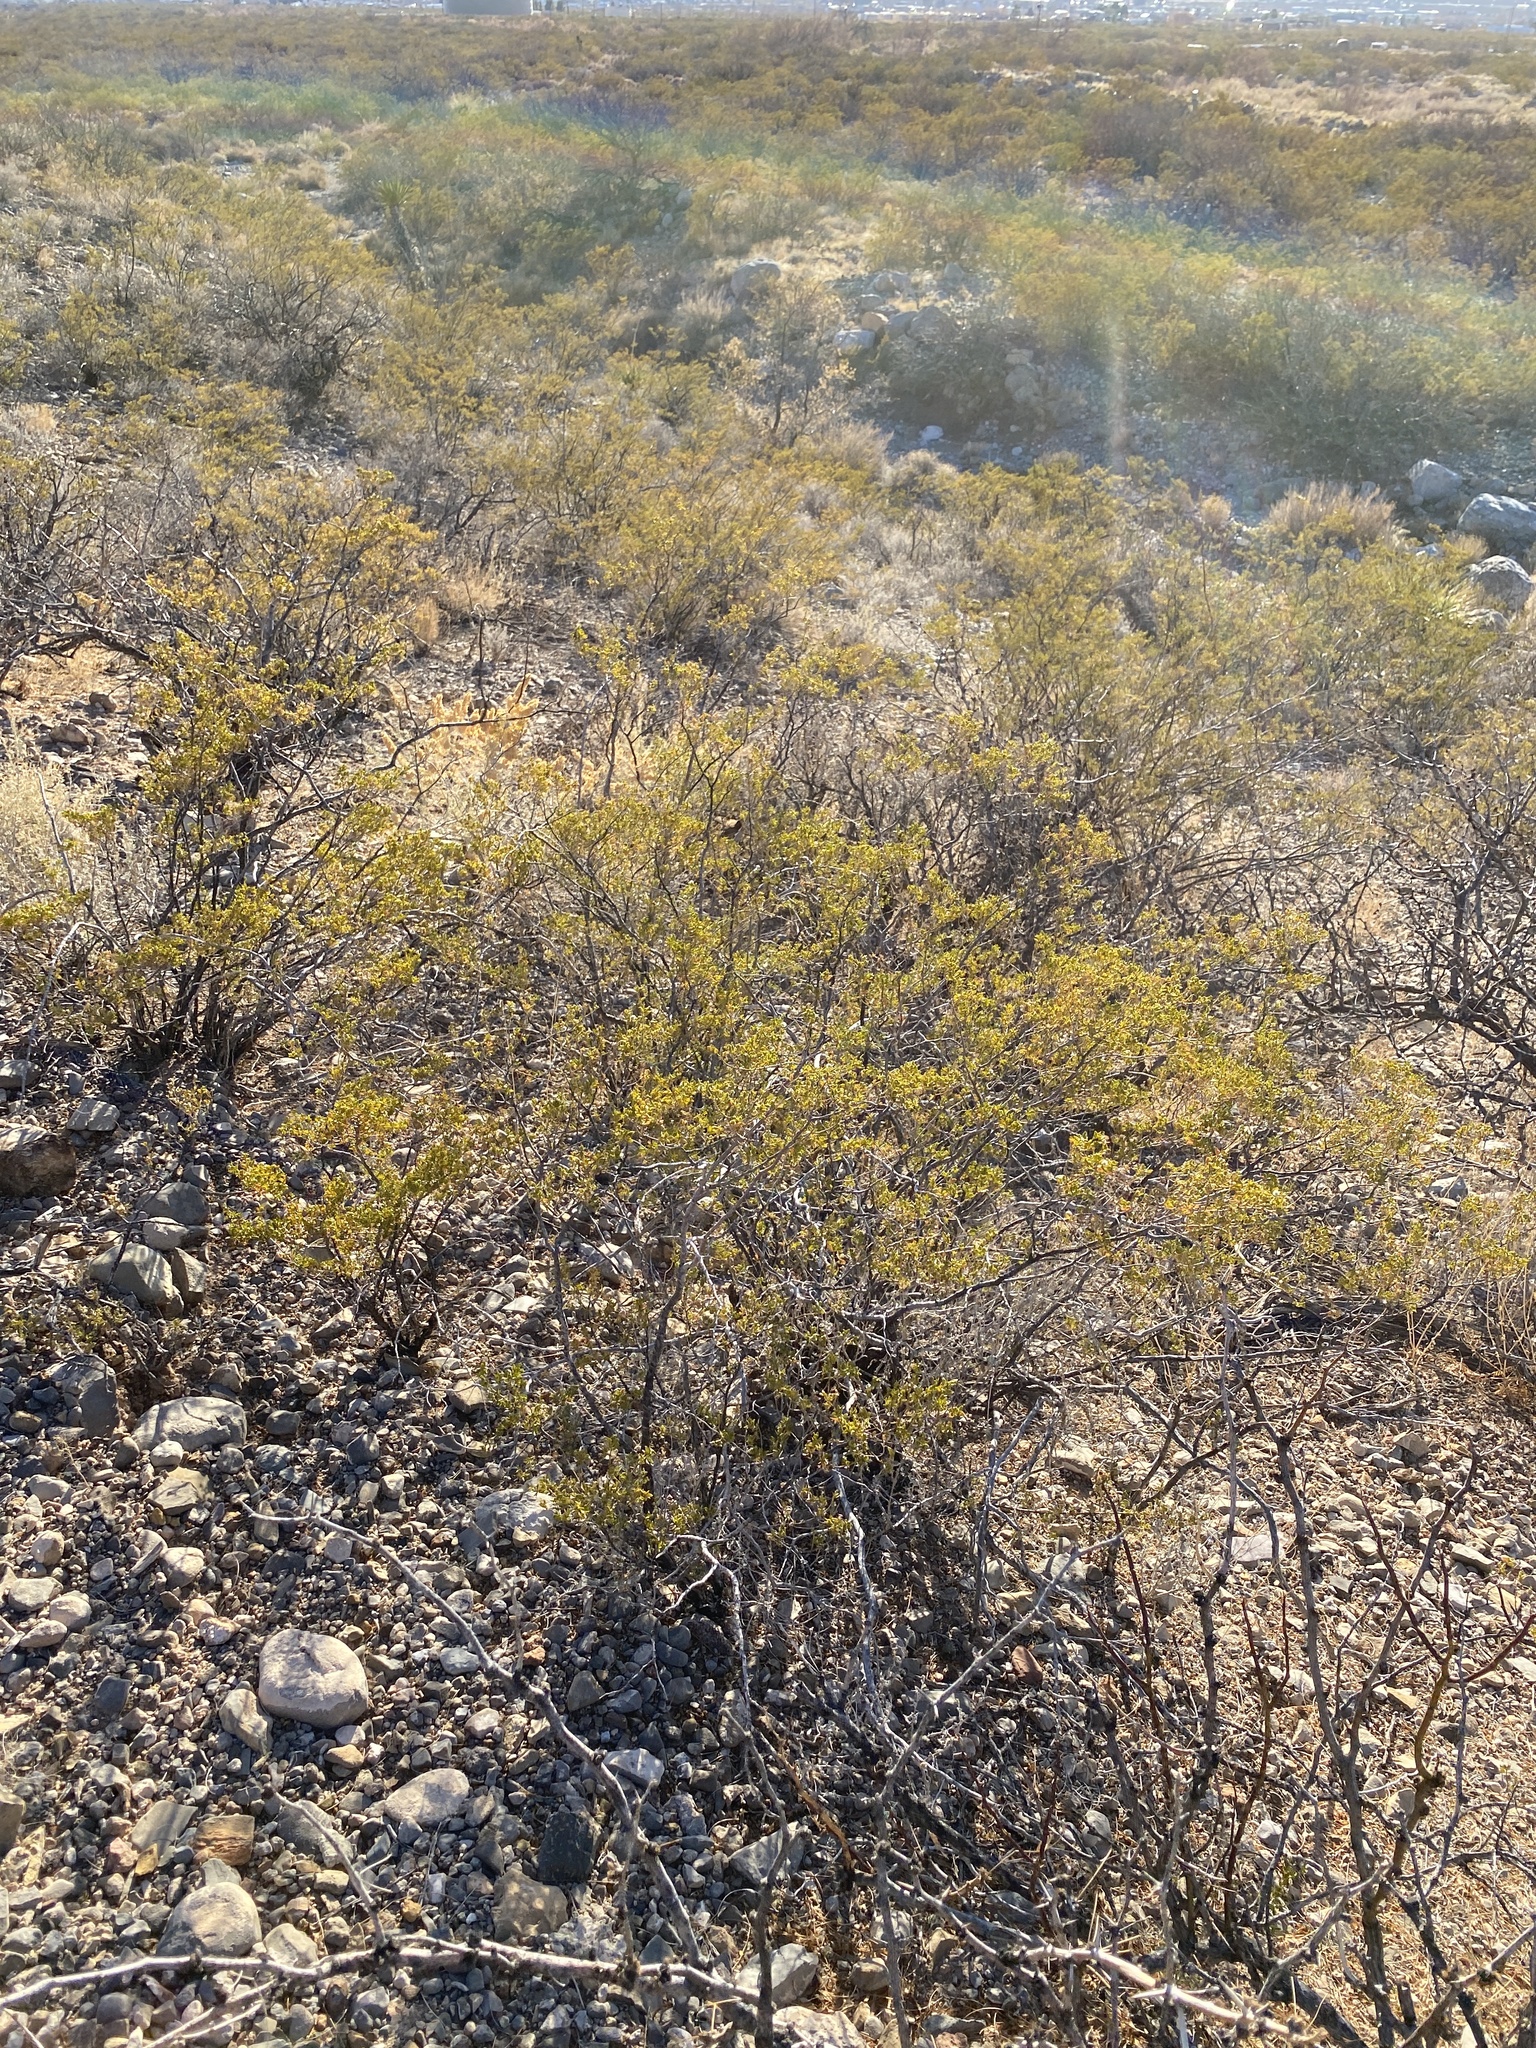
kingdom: Plantae
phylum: Tracheophyta
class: Magnoliopsida
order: Zygophyllales
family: Zygophyllaceae
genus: Larrea
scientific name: Larrea tridentata
